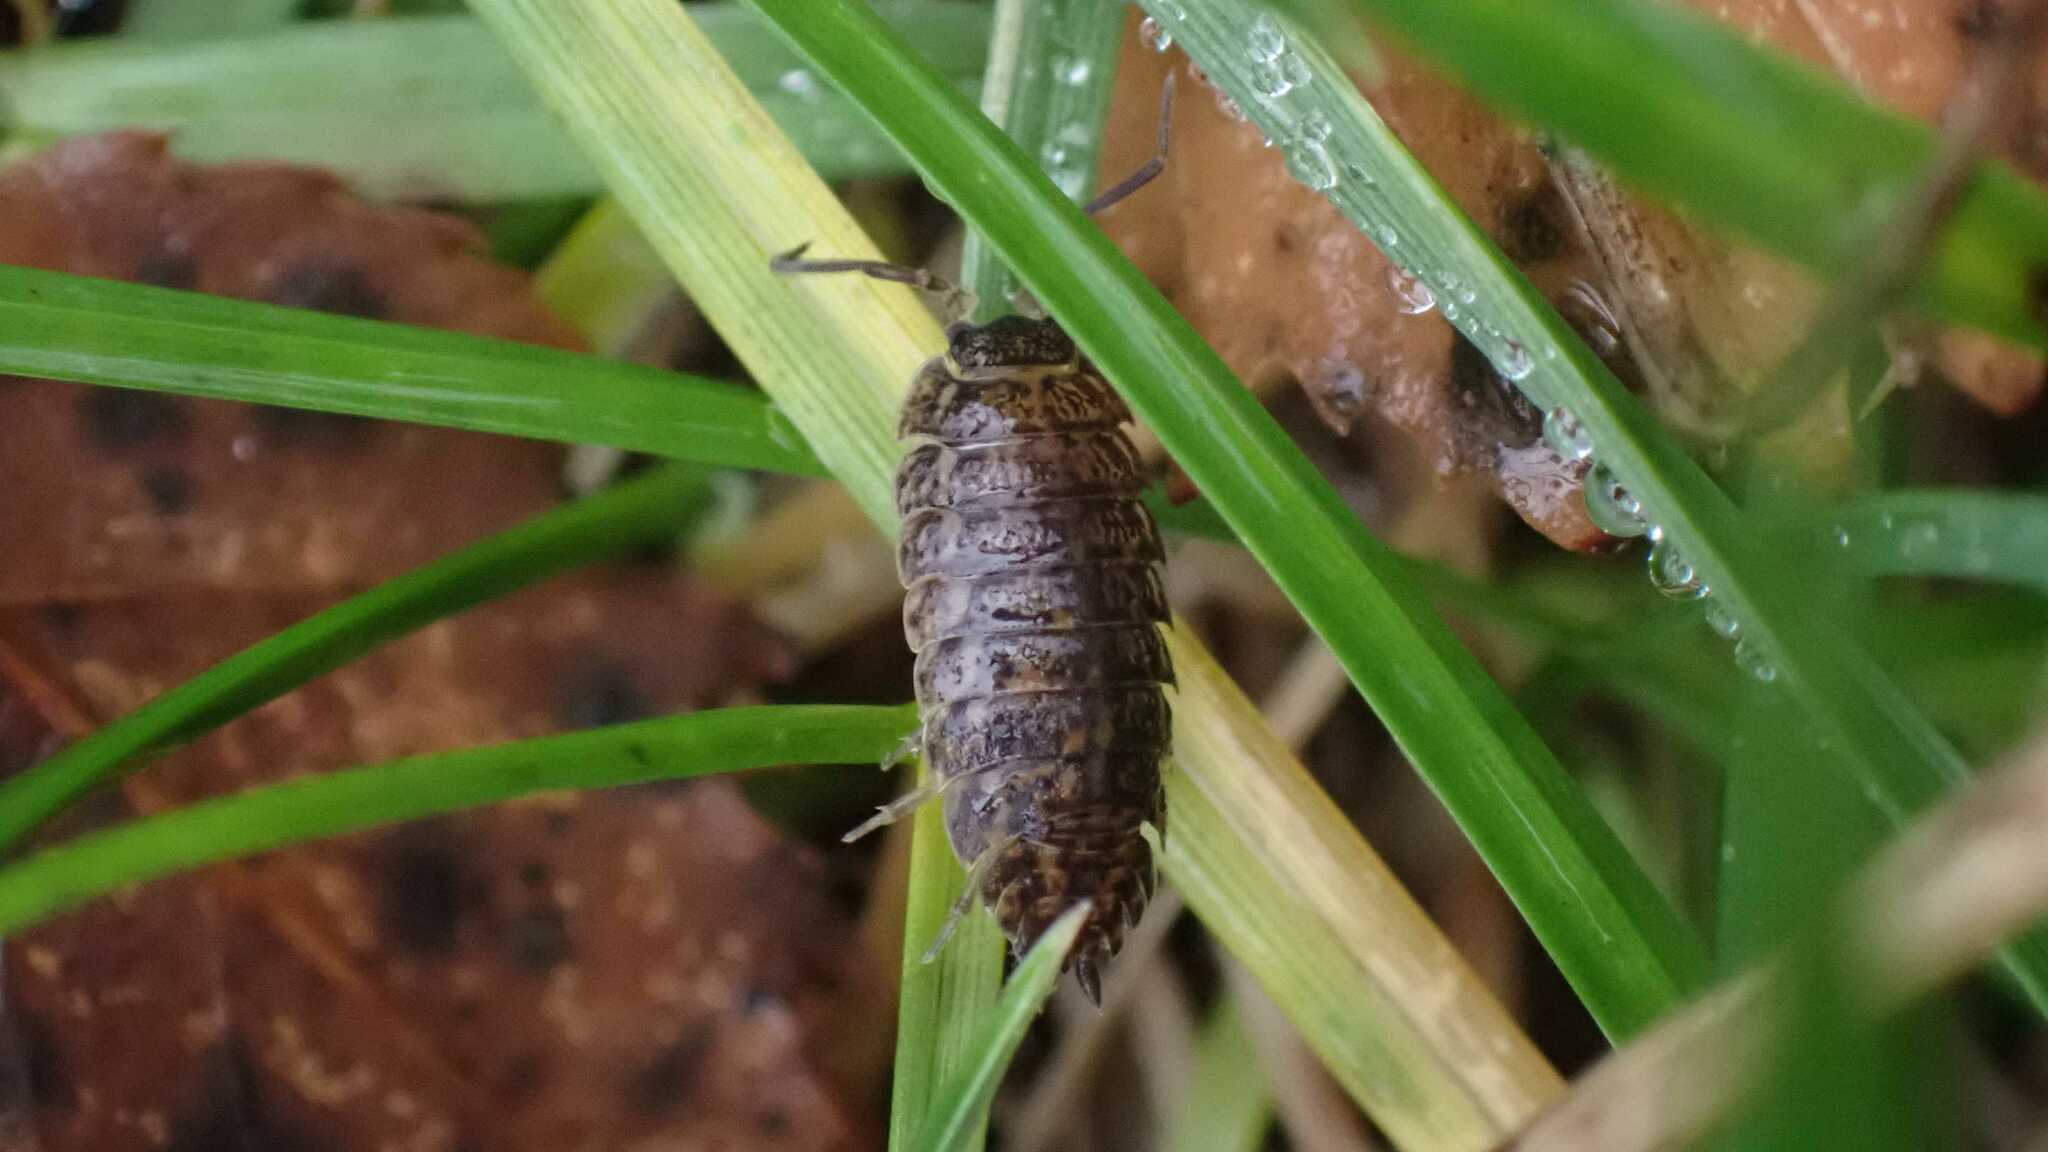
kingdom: Animalia
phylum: Arthropoda
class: Malacostraca
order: Isopoda
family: Trachelipodidae
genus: Trachelipus
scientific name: Trachelipus rathkii
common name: Isopod
